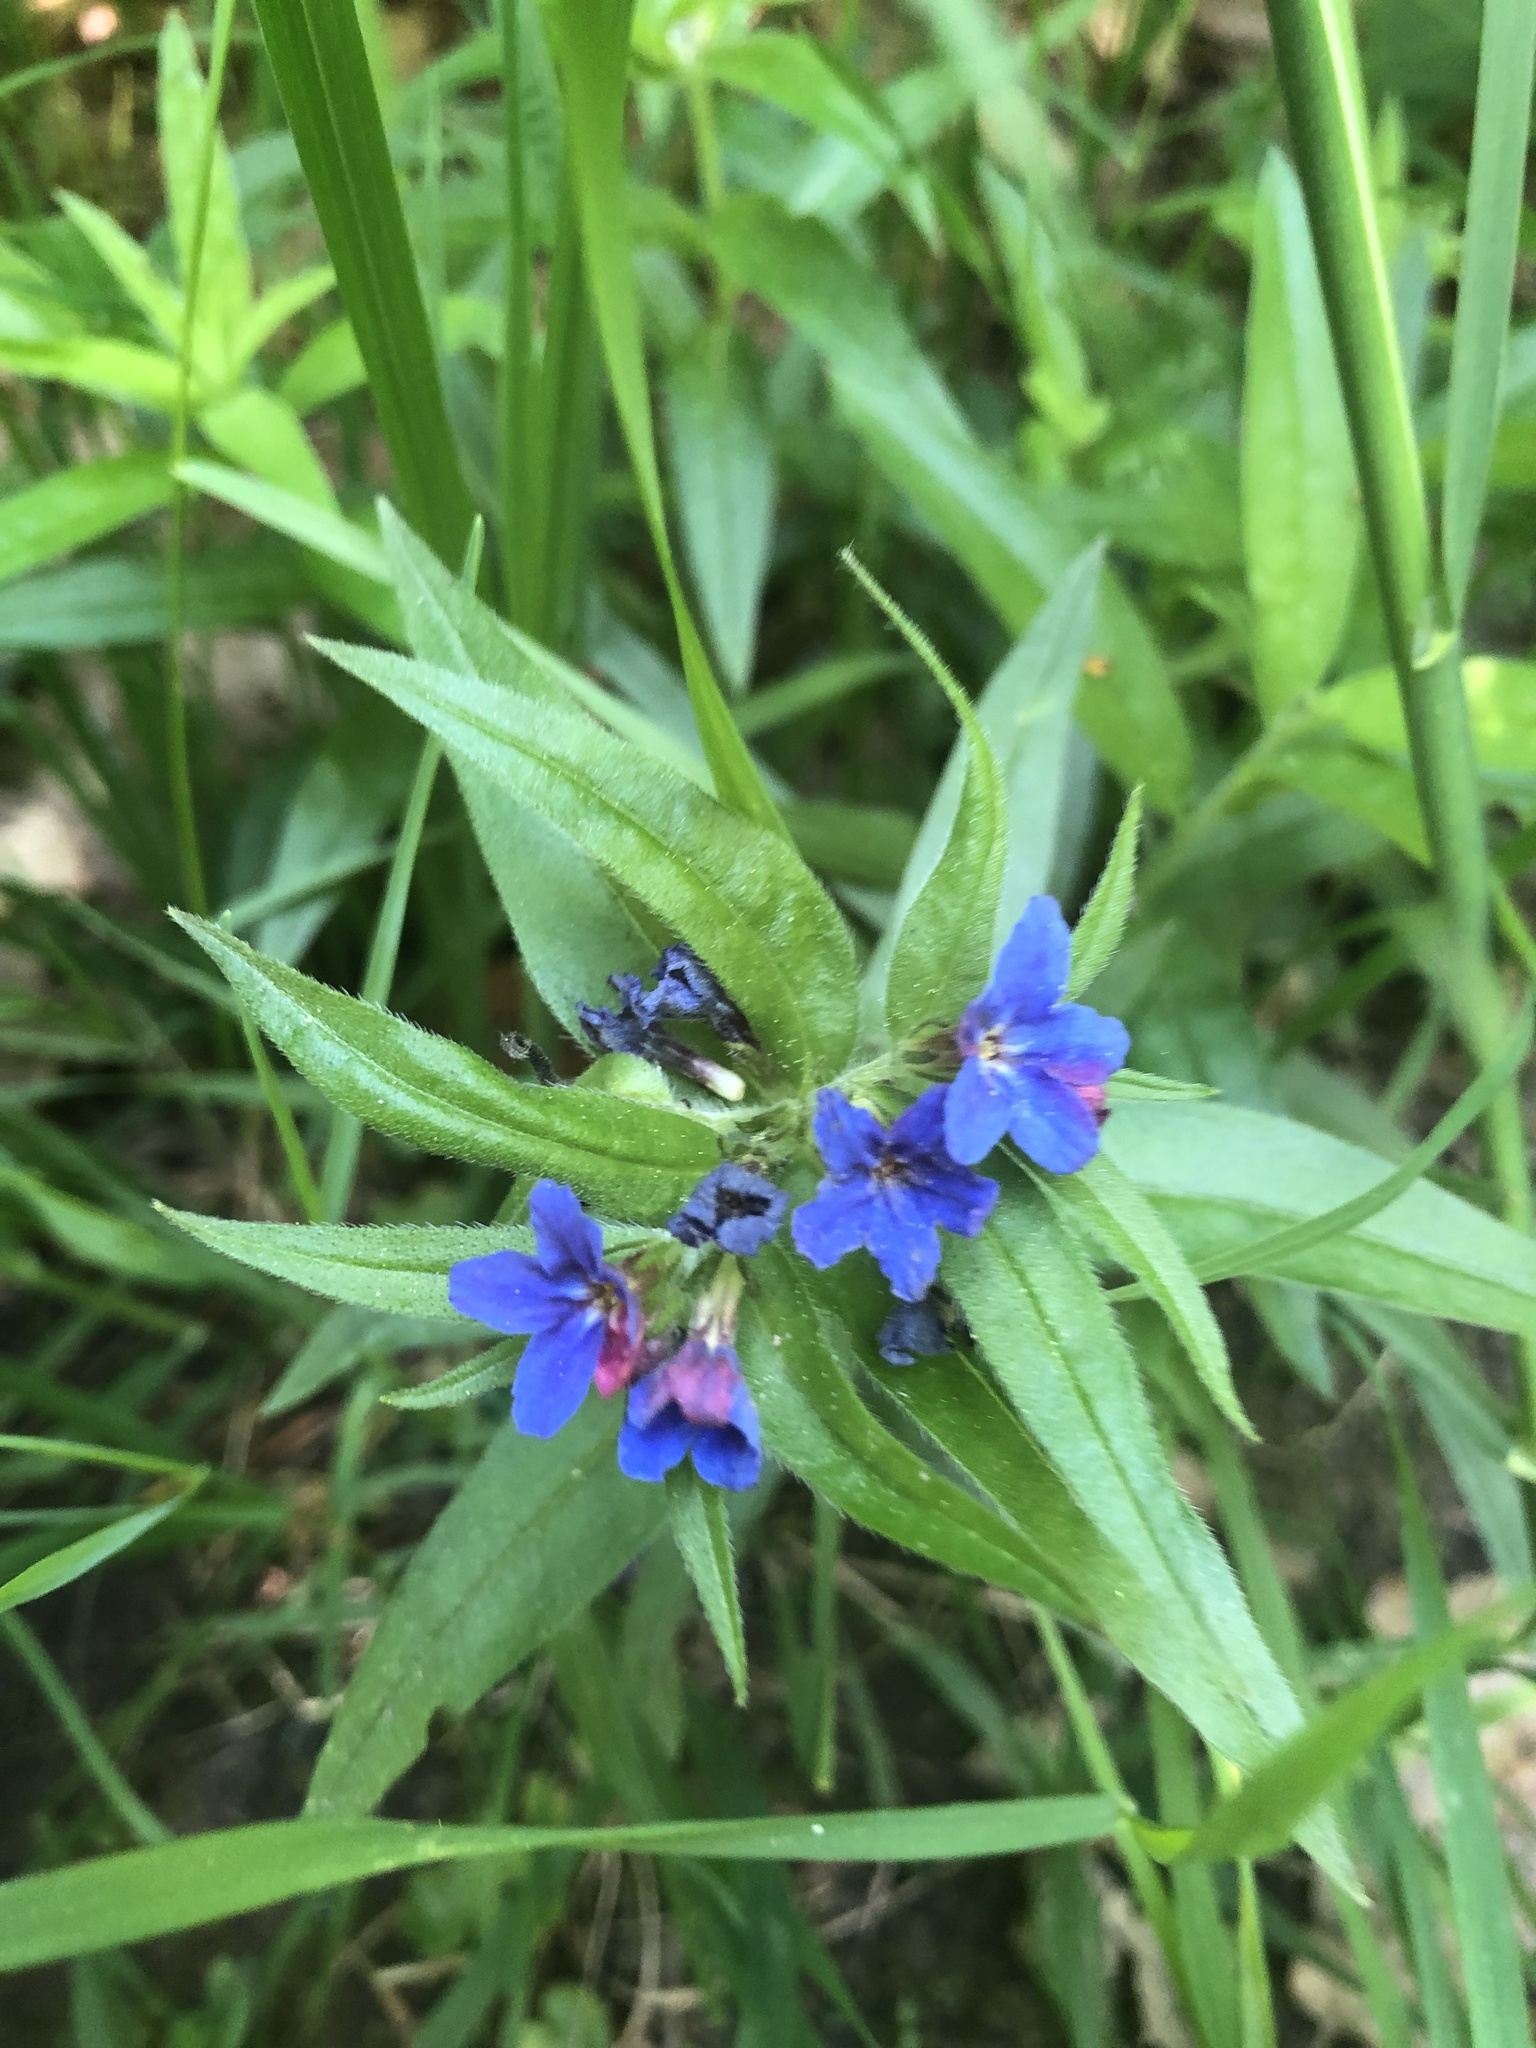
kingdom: Plantae
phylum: Tracheophyta
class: Magnoliopsida
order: Boraginales
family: Boraginaceae
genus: Aegonychon
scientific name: Aegonychon purpurocaeruleum
